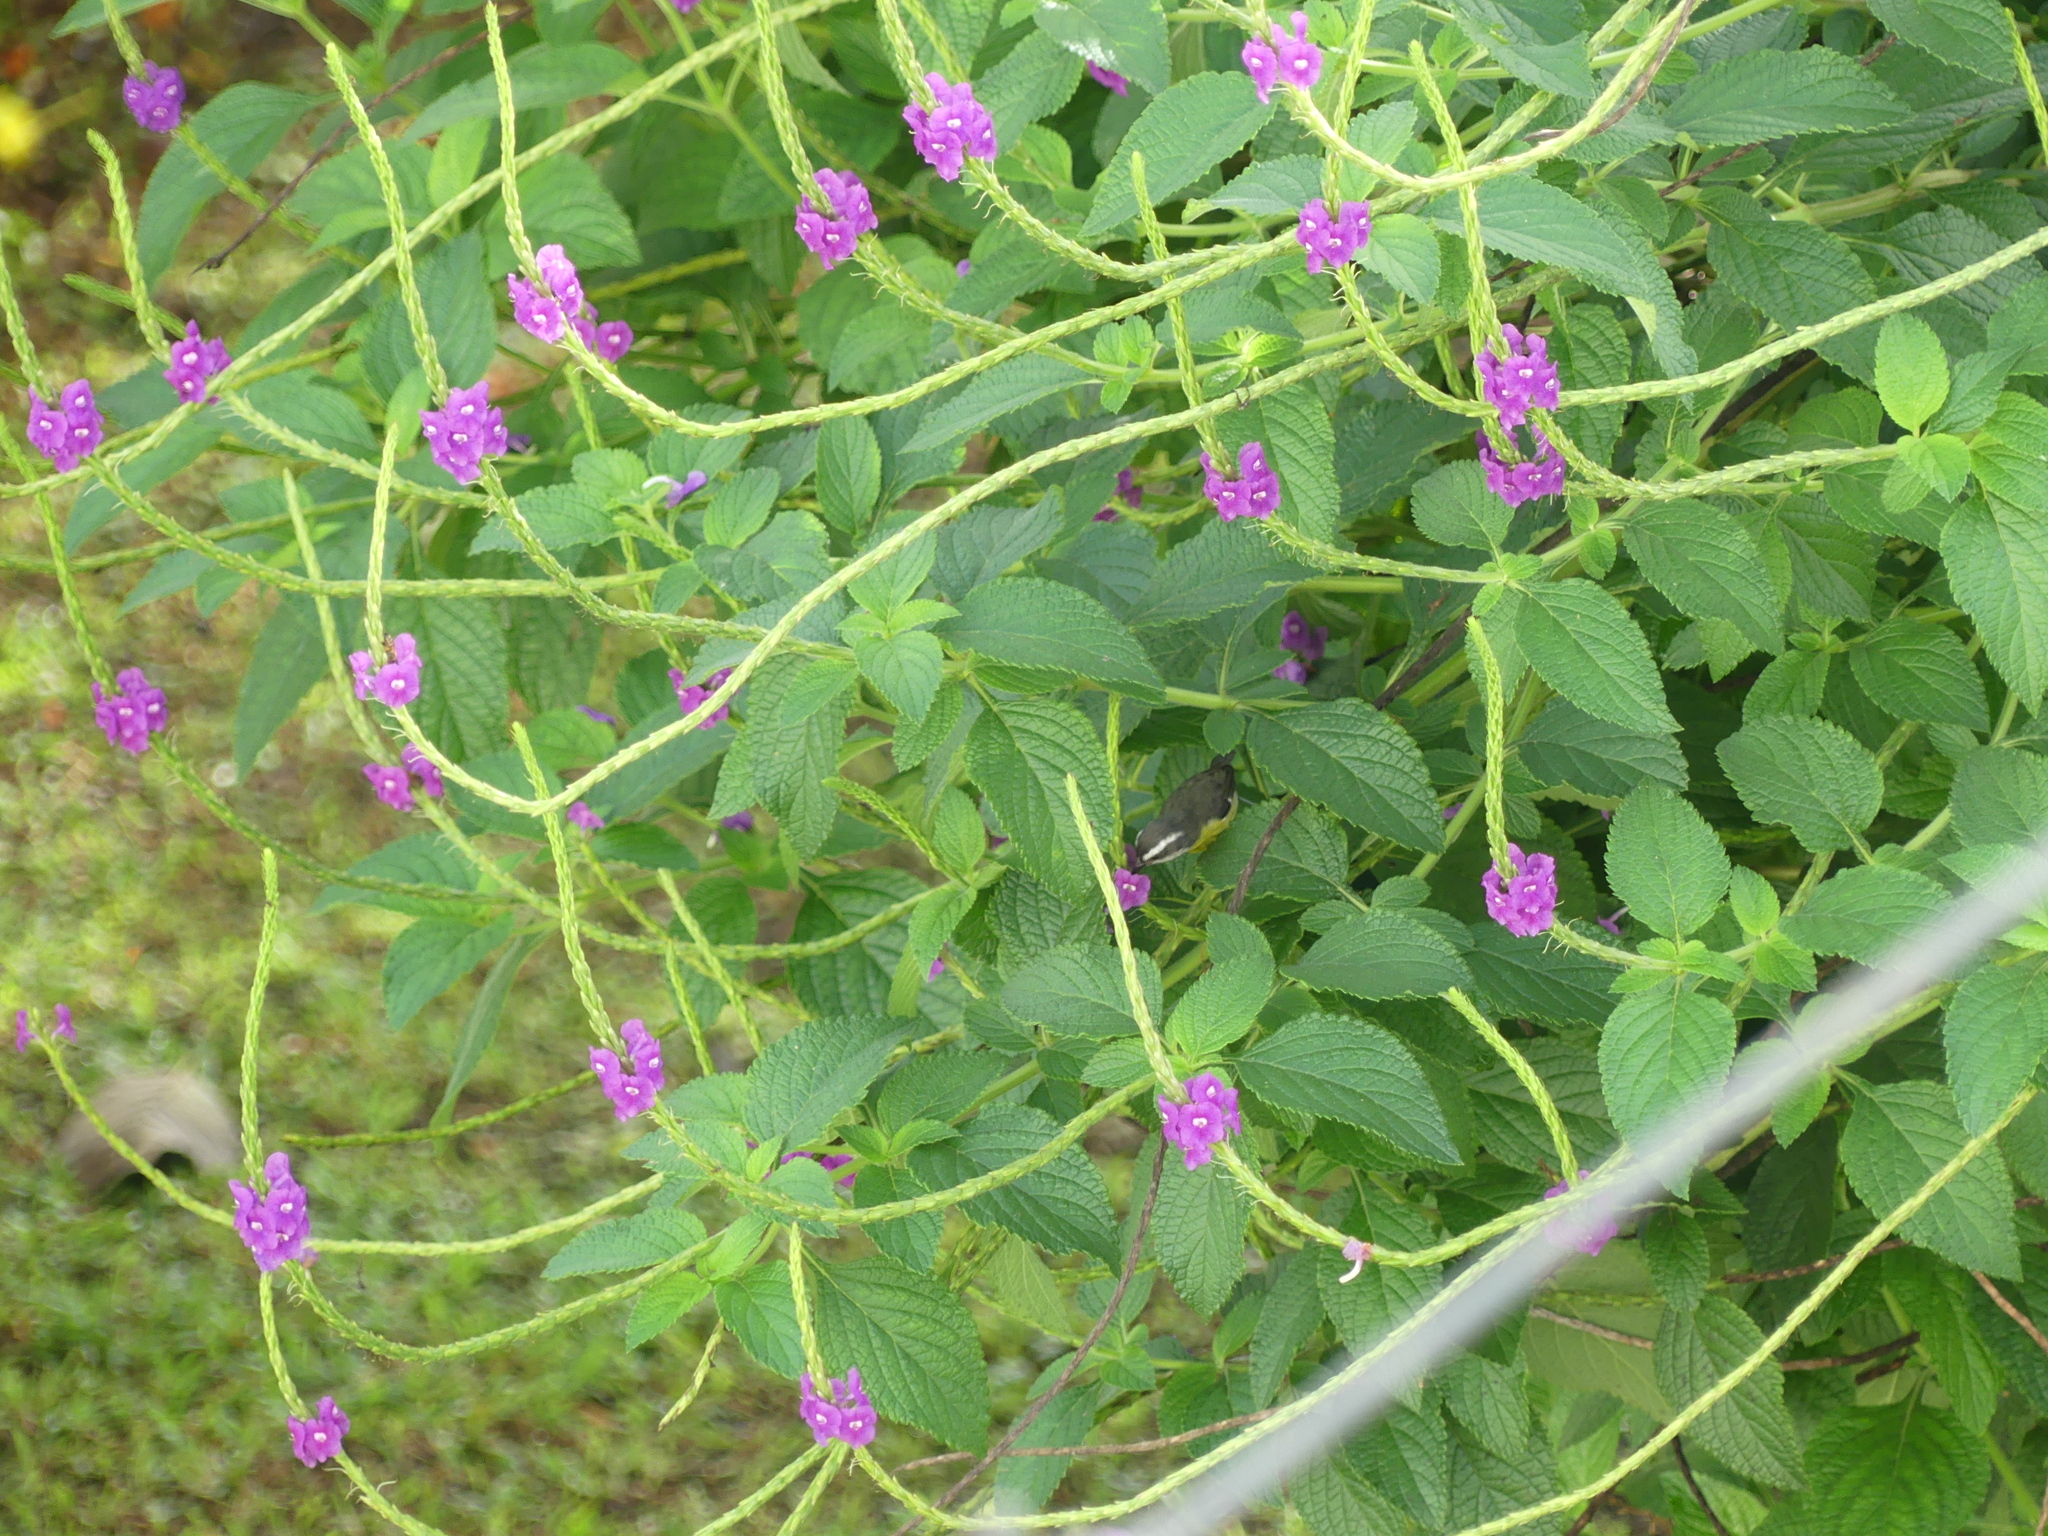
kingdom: Animalia
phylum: Chordata
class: Aves
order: Passeriformes
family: Thraupidae
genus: Coereba
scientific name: Coereba flaveola
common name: Bananaquit
